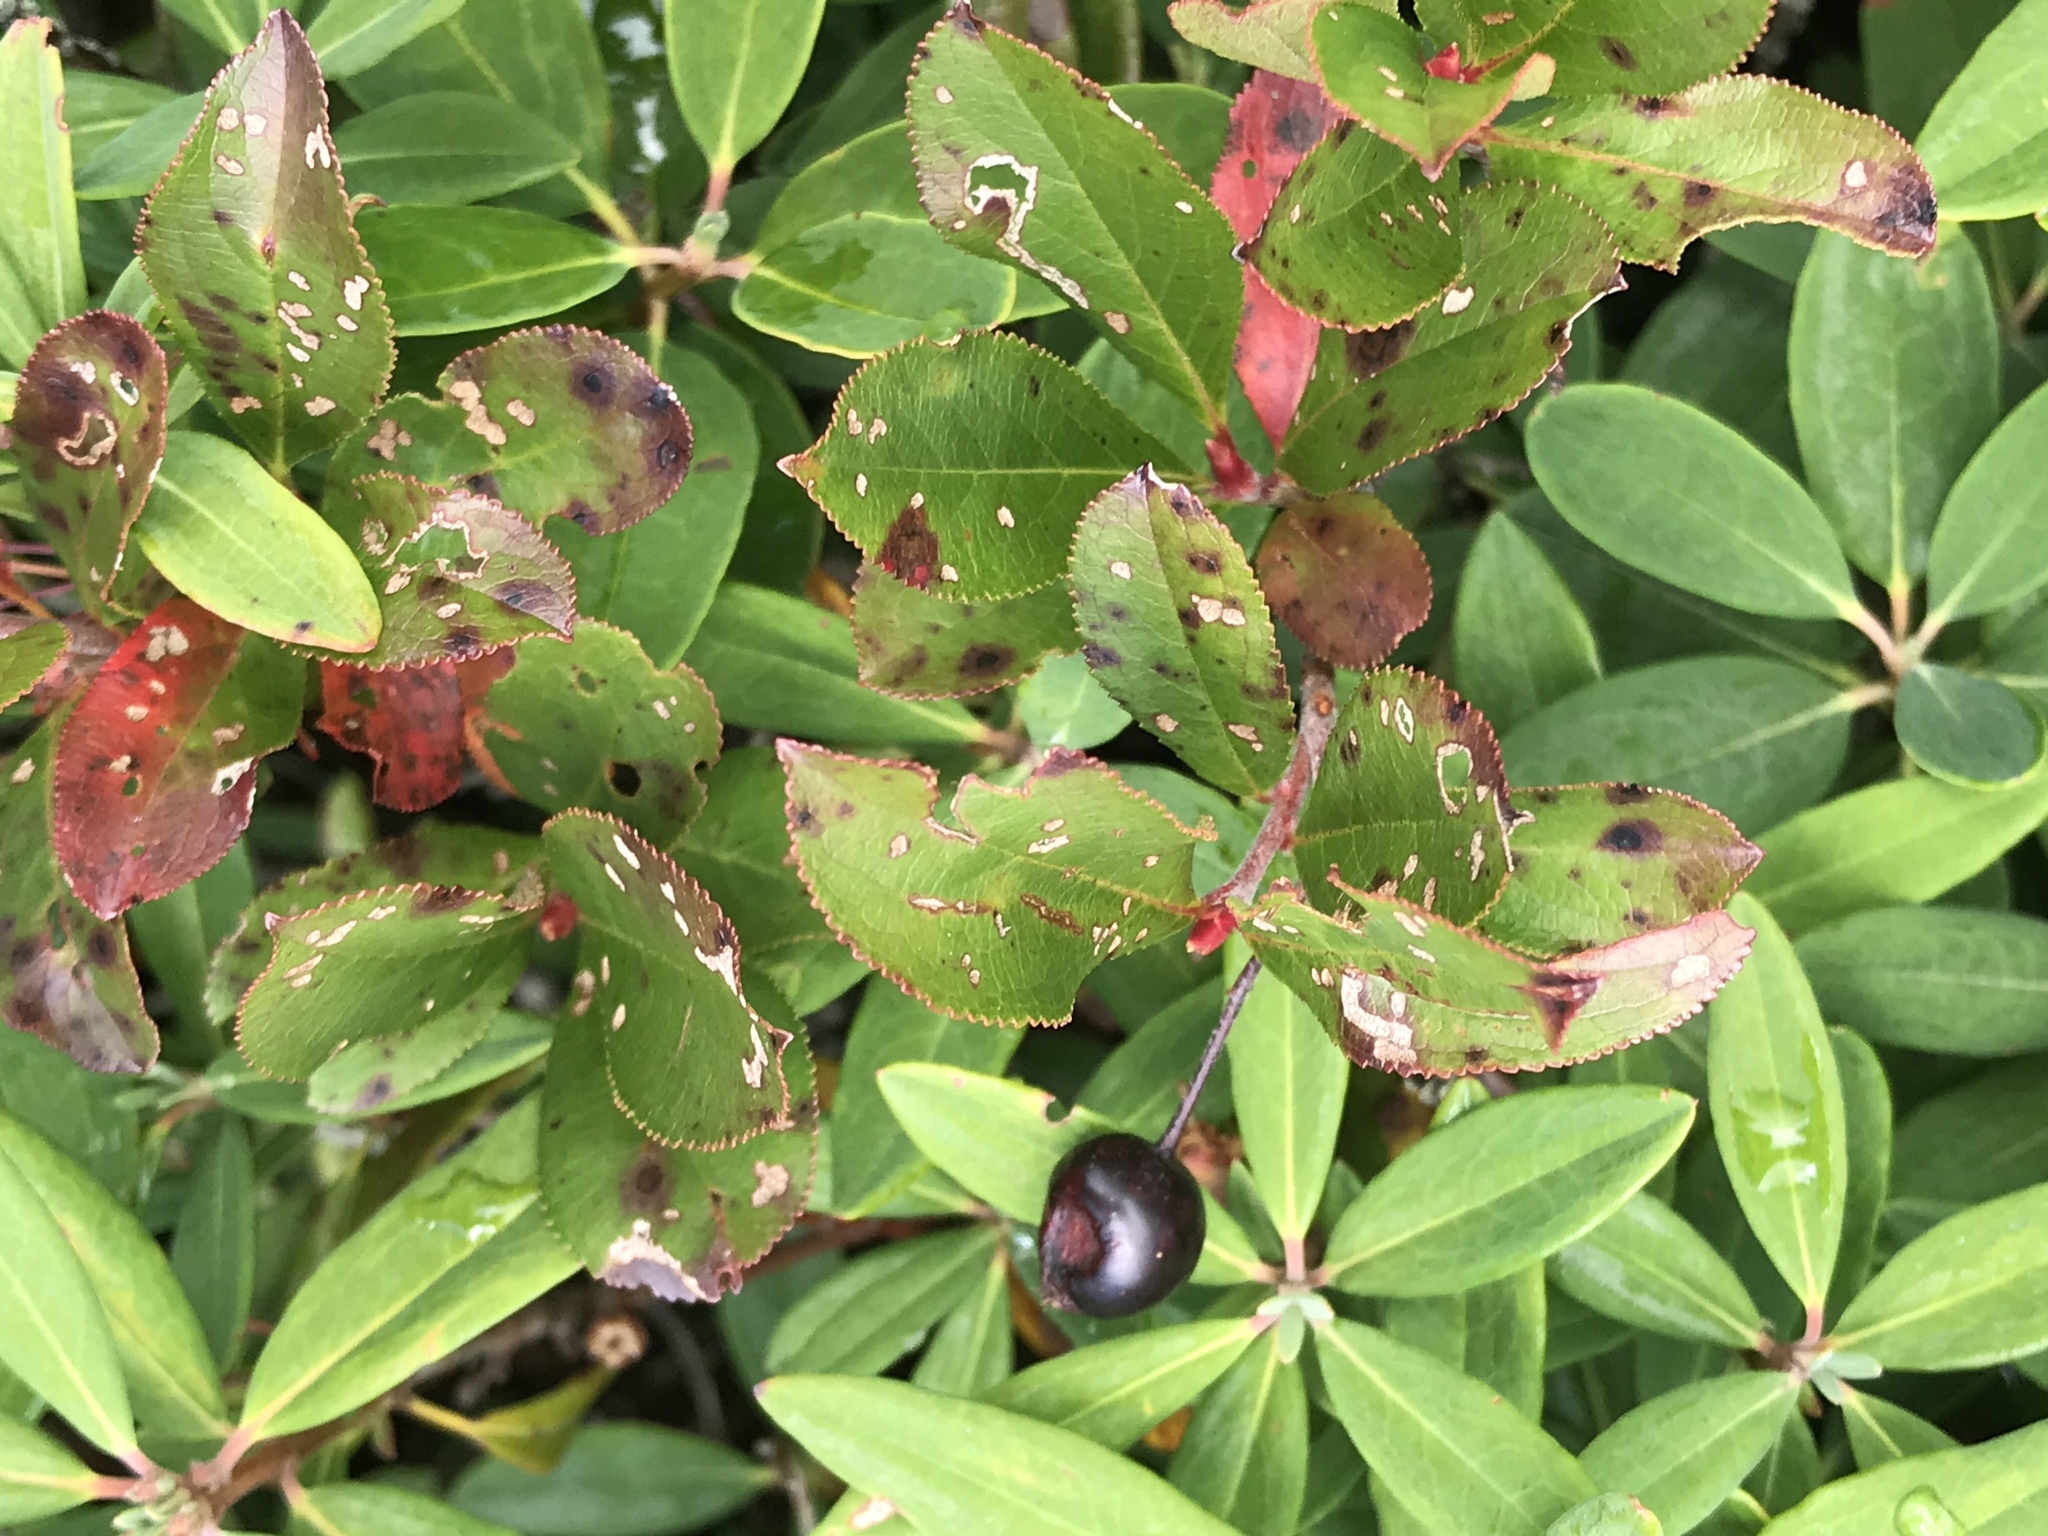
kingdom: Plantae
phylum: Tracheophyta
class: Magnoliopsida
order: Rosales
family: Rosaceae
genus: Aronia
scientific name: Aronia melanocarpa
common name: Black chokeberry
